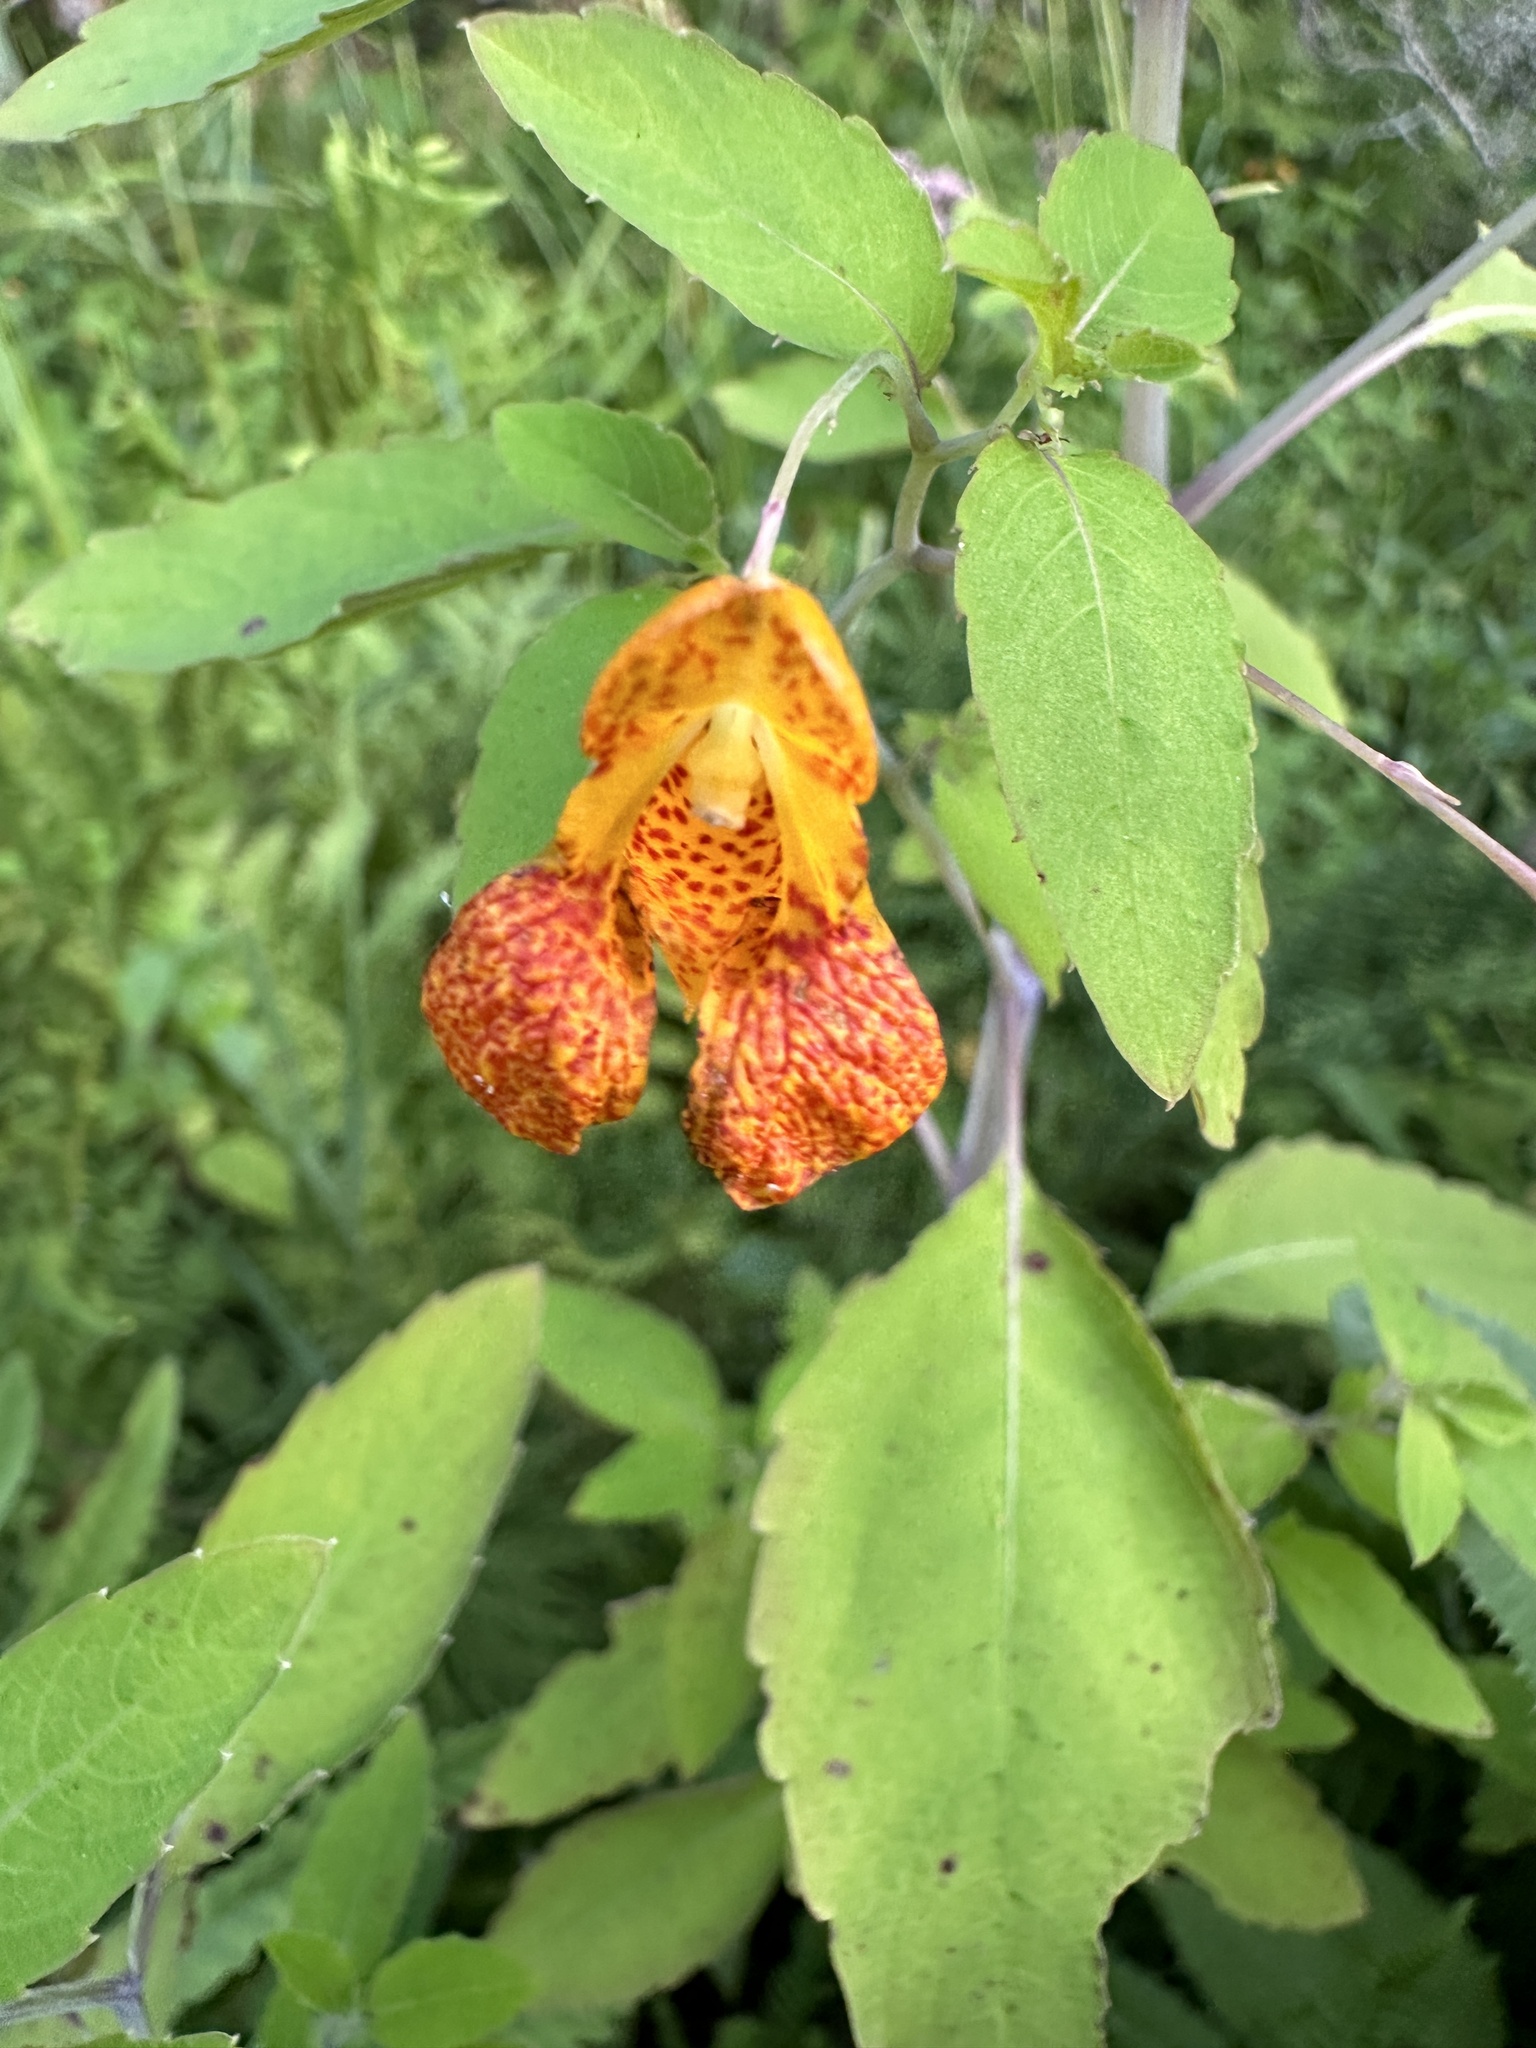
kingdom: Plantae
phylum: Tracheophyta
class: Magnoliopsida
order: Ericales
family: Balsaminaceae
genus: Impatiens
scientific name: Impatiens capensis
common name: Orange balsam
